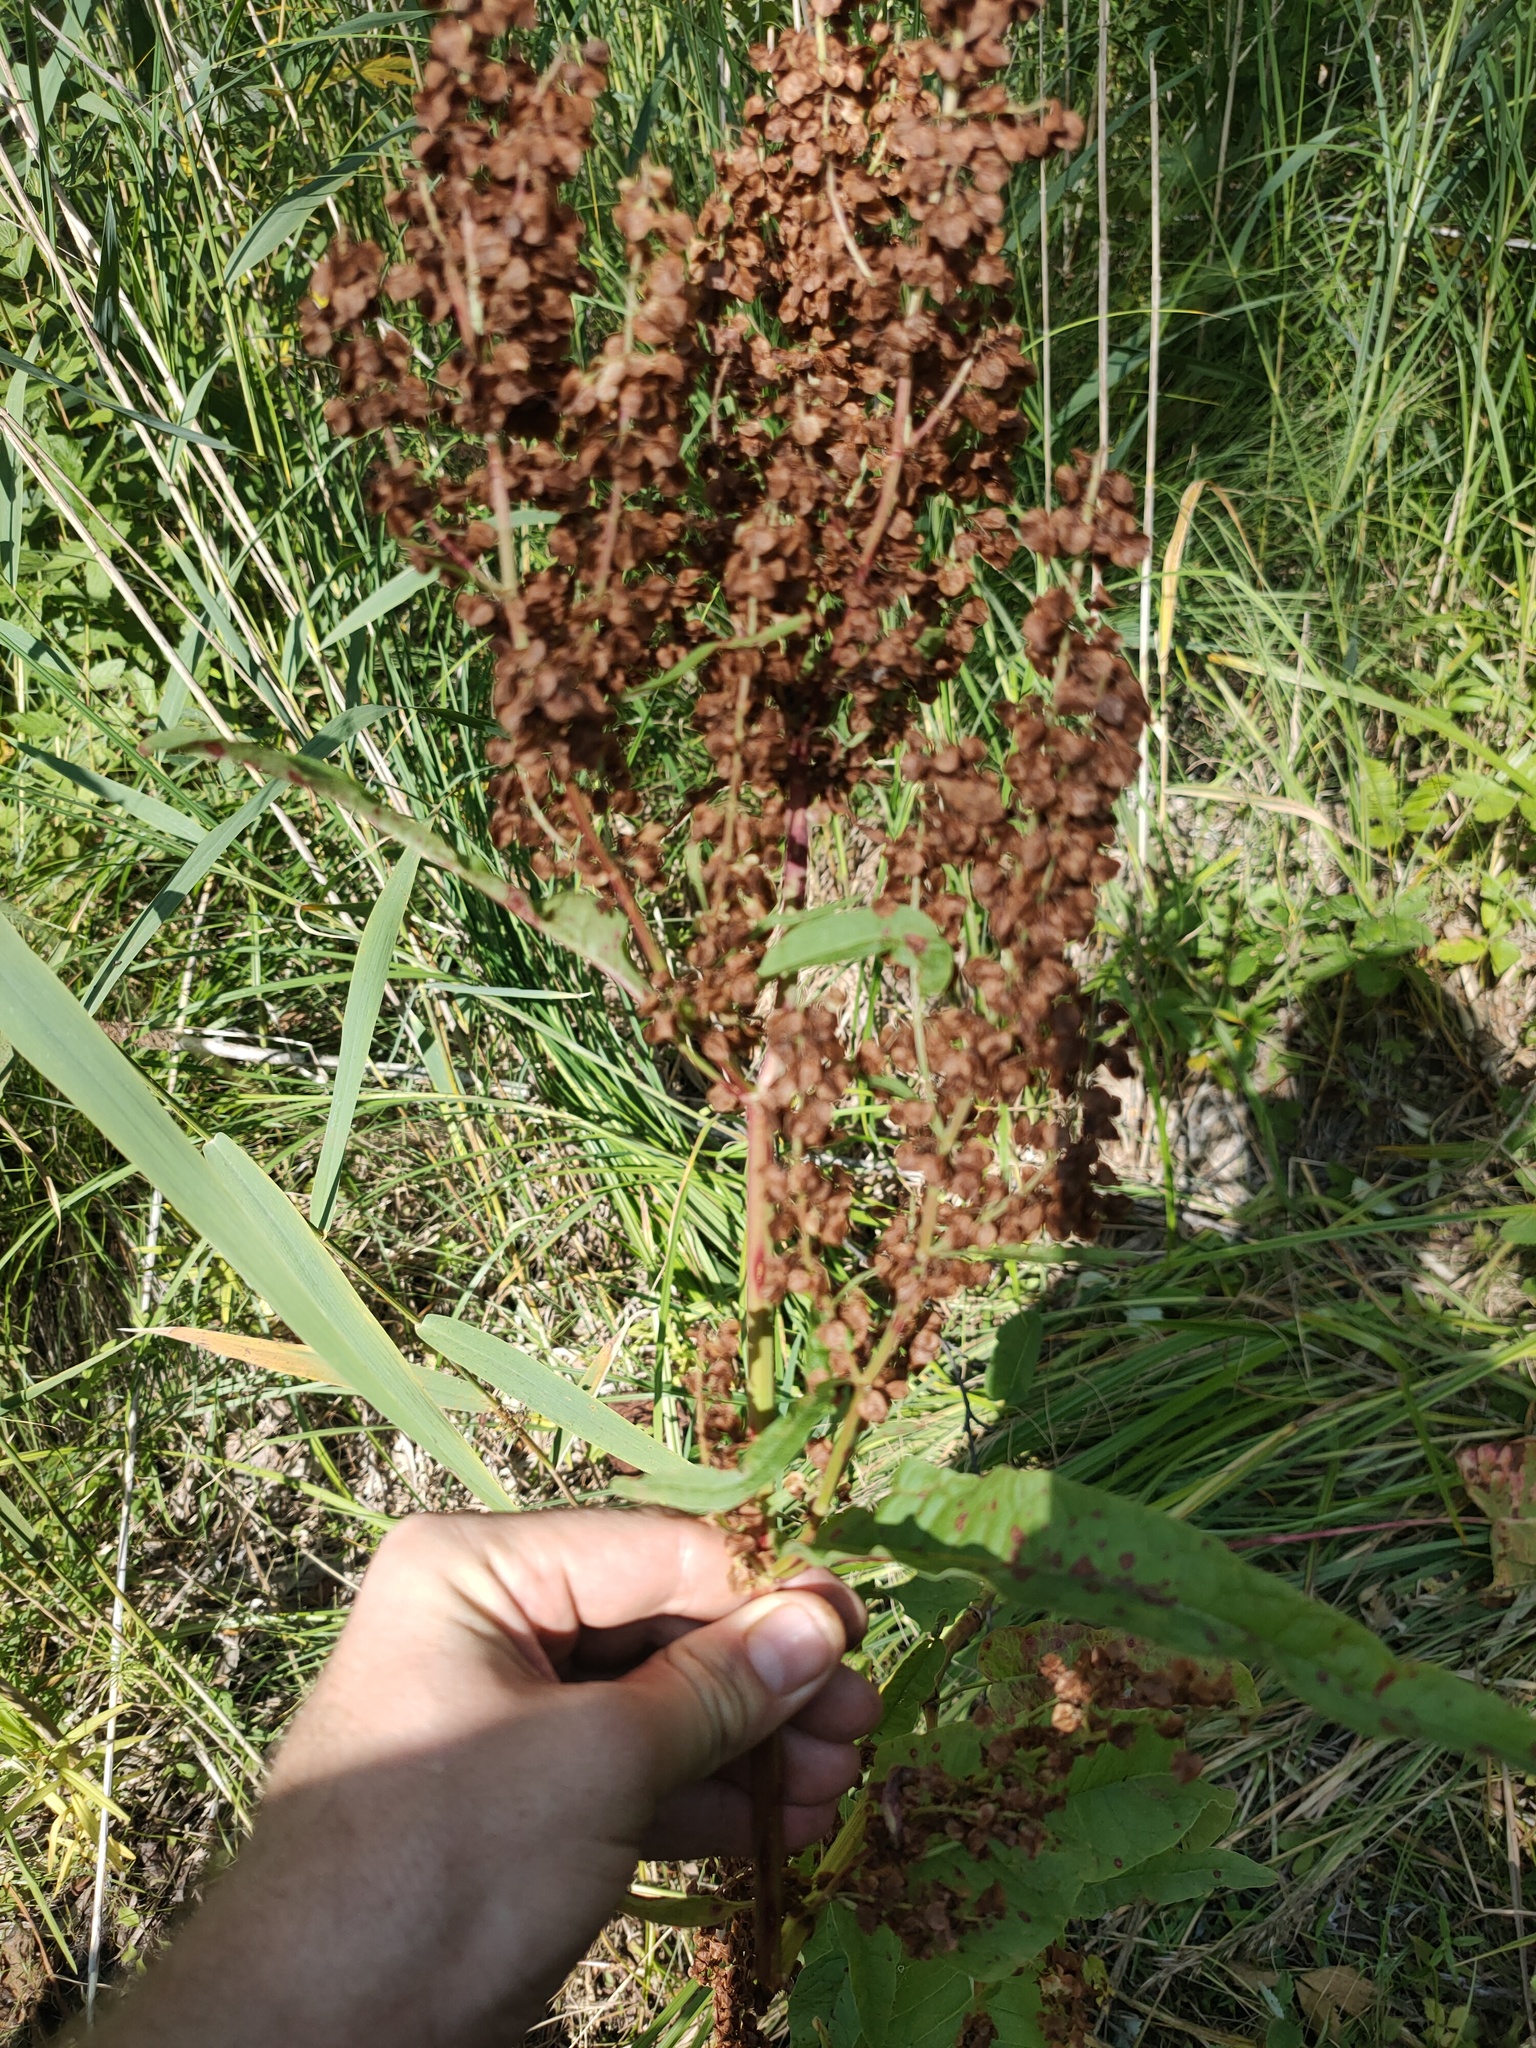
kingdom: Plantae
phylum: Tracheophyta
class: Magnoliopsida
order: Caryophyllales
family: Polygonaceae
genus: Rumex
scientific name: Rumex aquaticus
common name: Scottish dock
